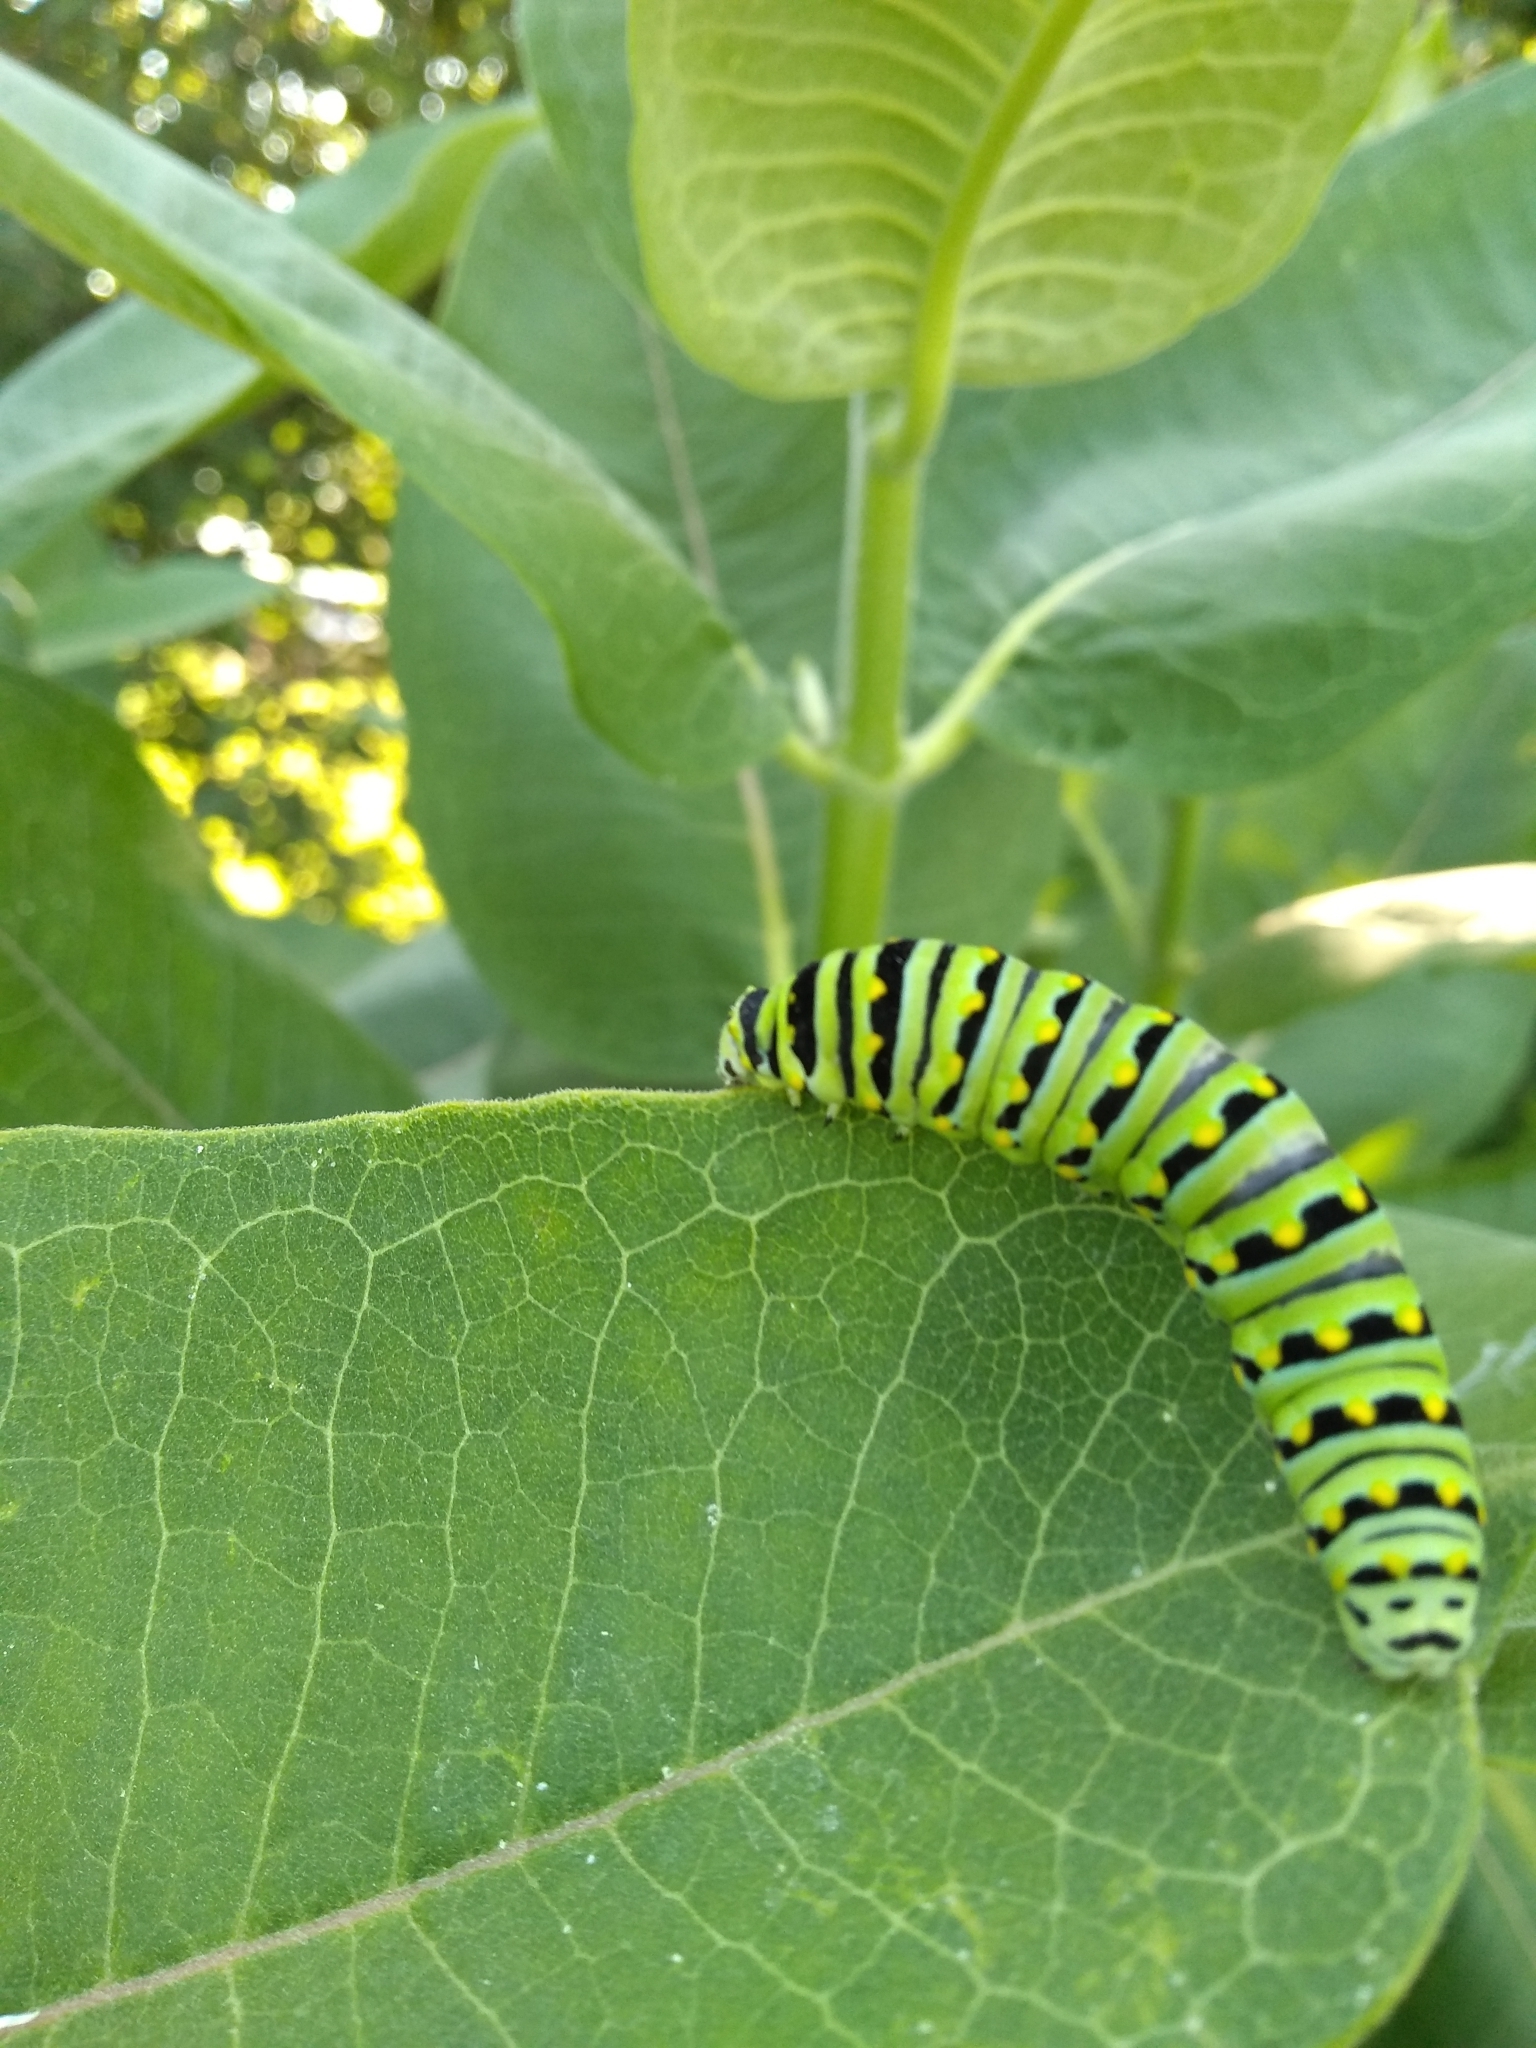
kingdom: Animalia
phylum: Arthropoda
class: Insecta
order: Lepidoptera
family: Papilionidae
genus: Papilio
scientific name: Papilio polyxenes
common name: Black swallowtail
